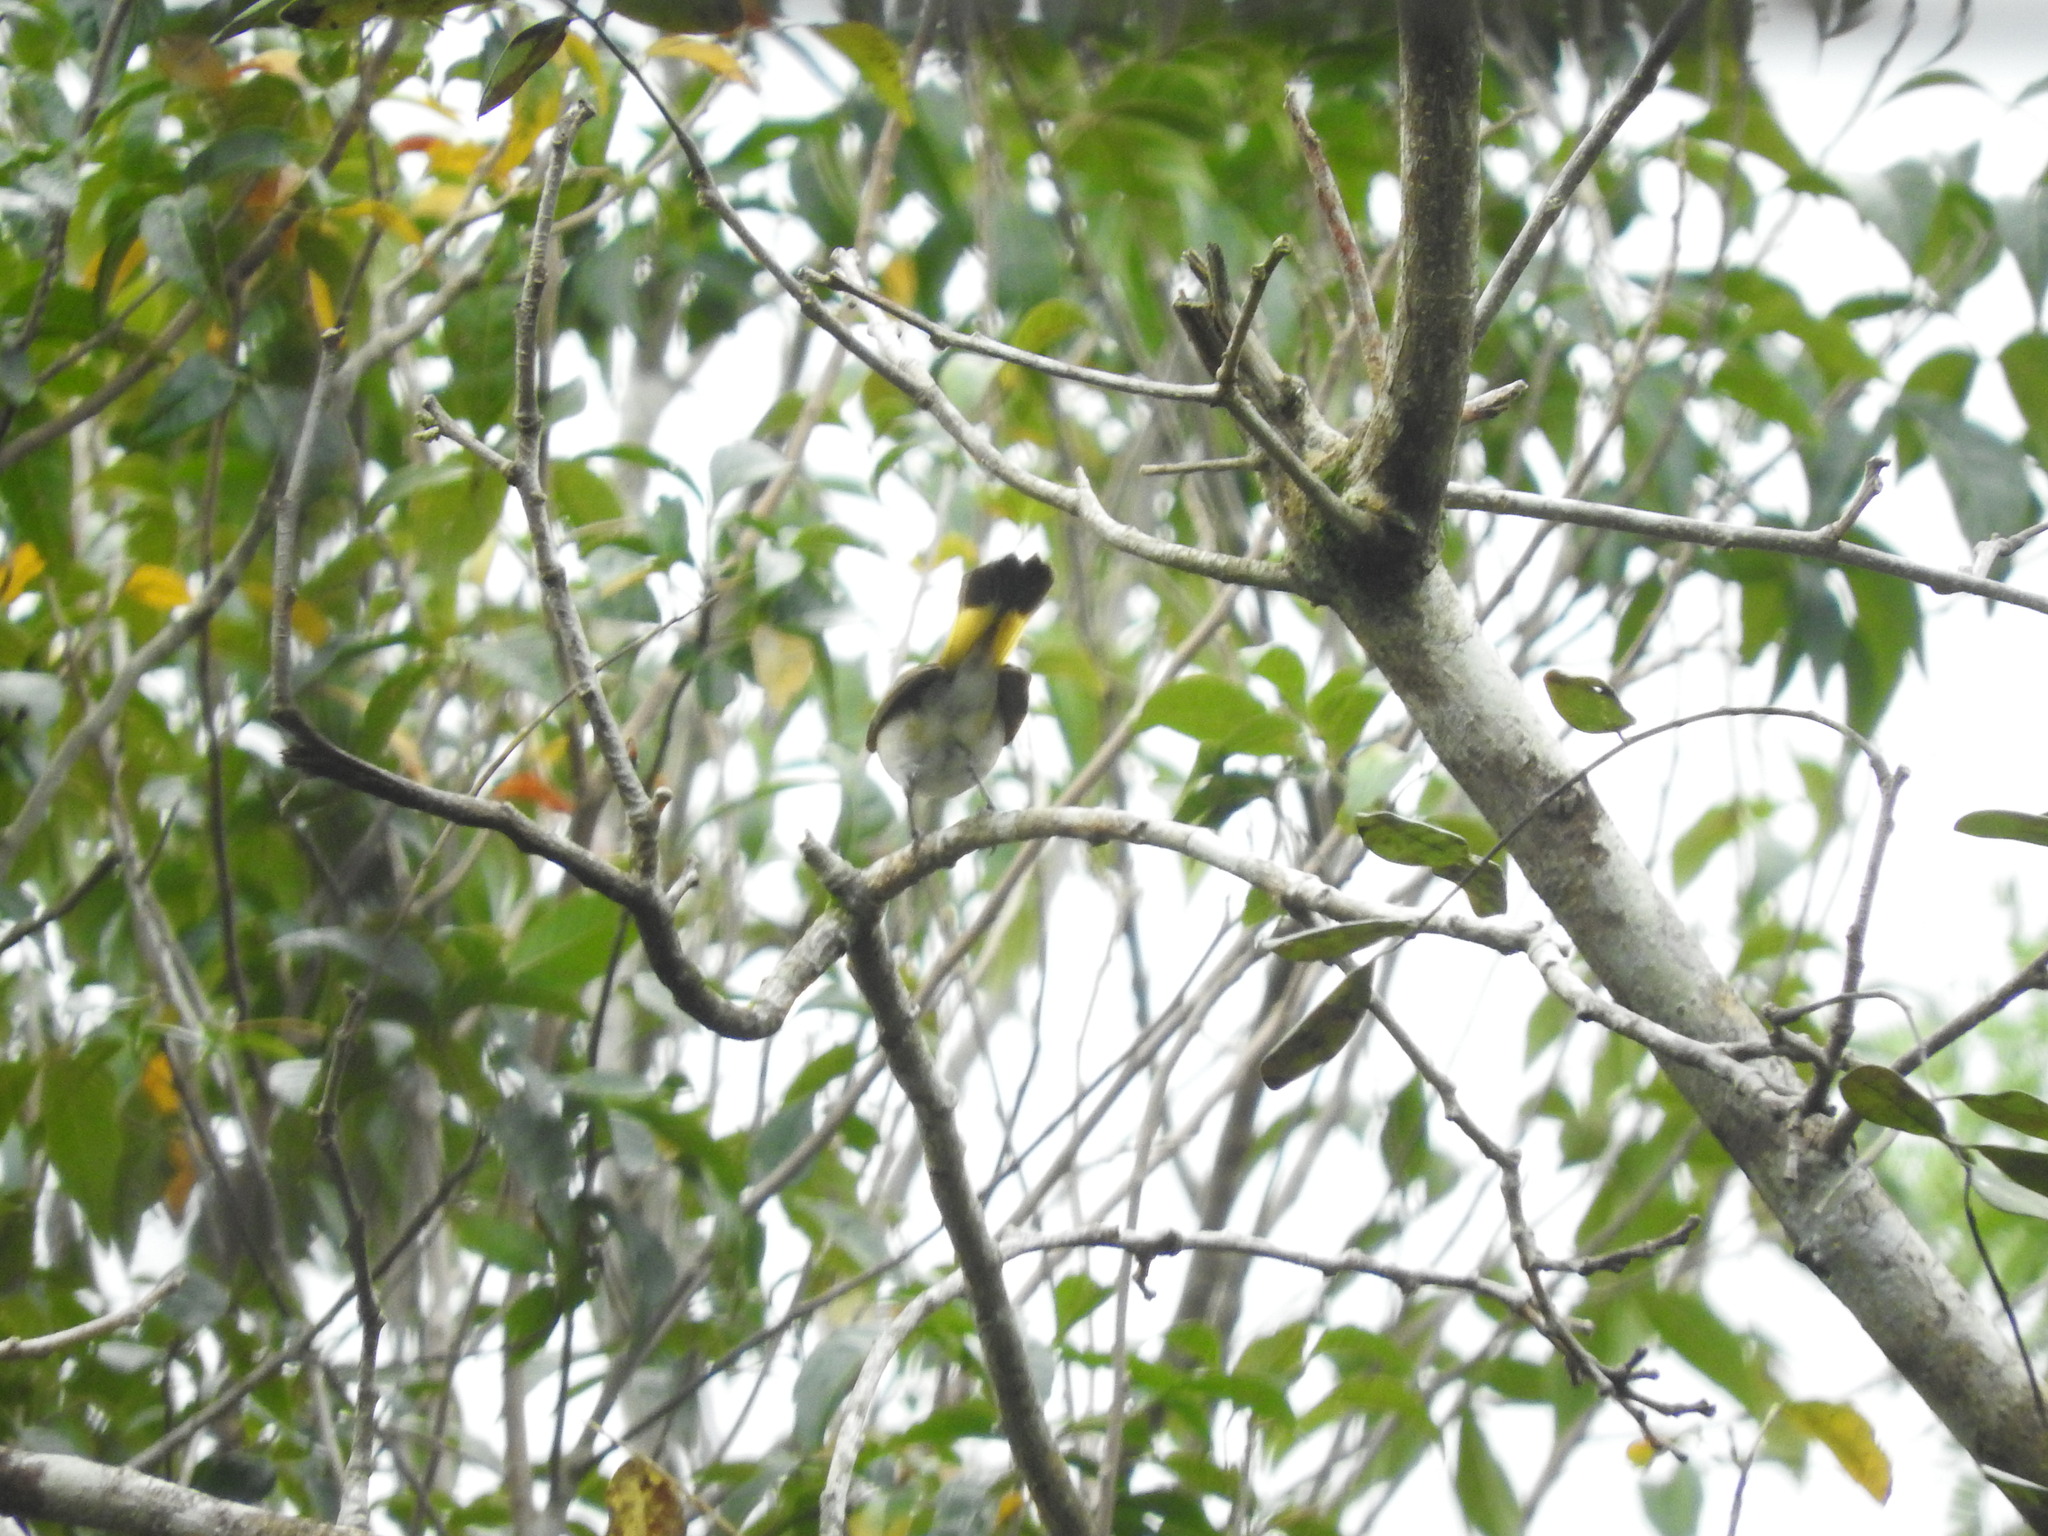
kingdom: Animalia
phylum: Chordata
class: Aves
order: Passeriformes
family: Parulidae
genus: Setophaga
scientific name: Setophaga ruticilla
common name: American redstart
